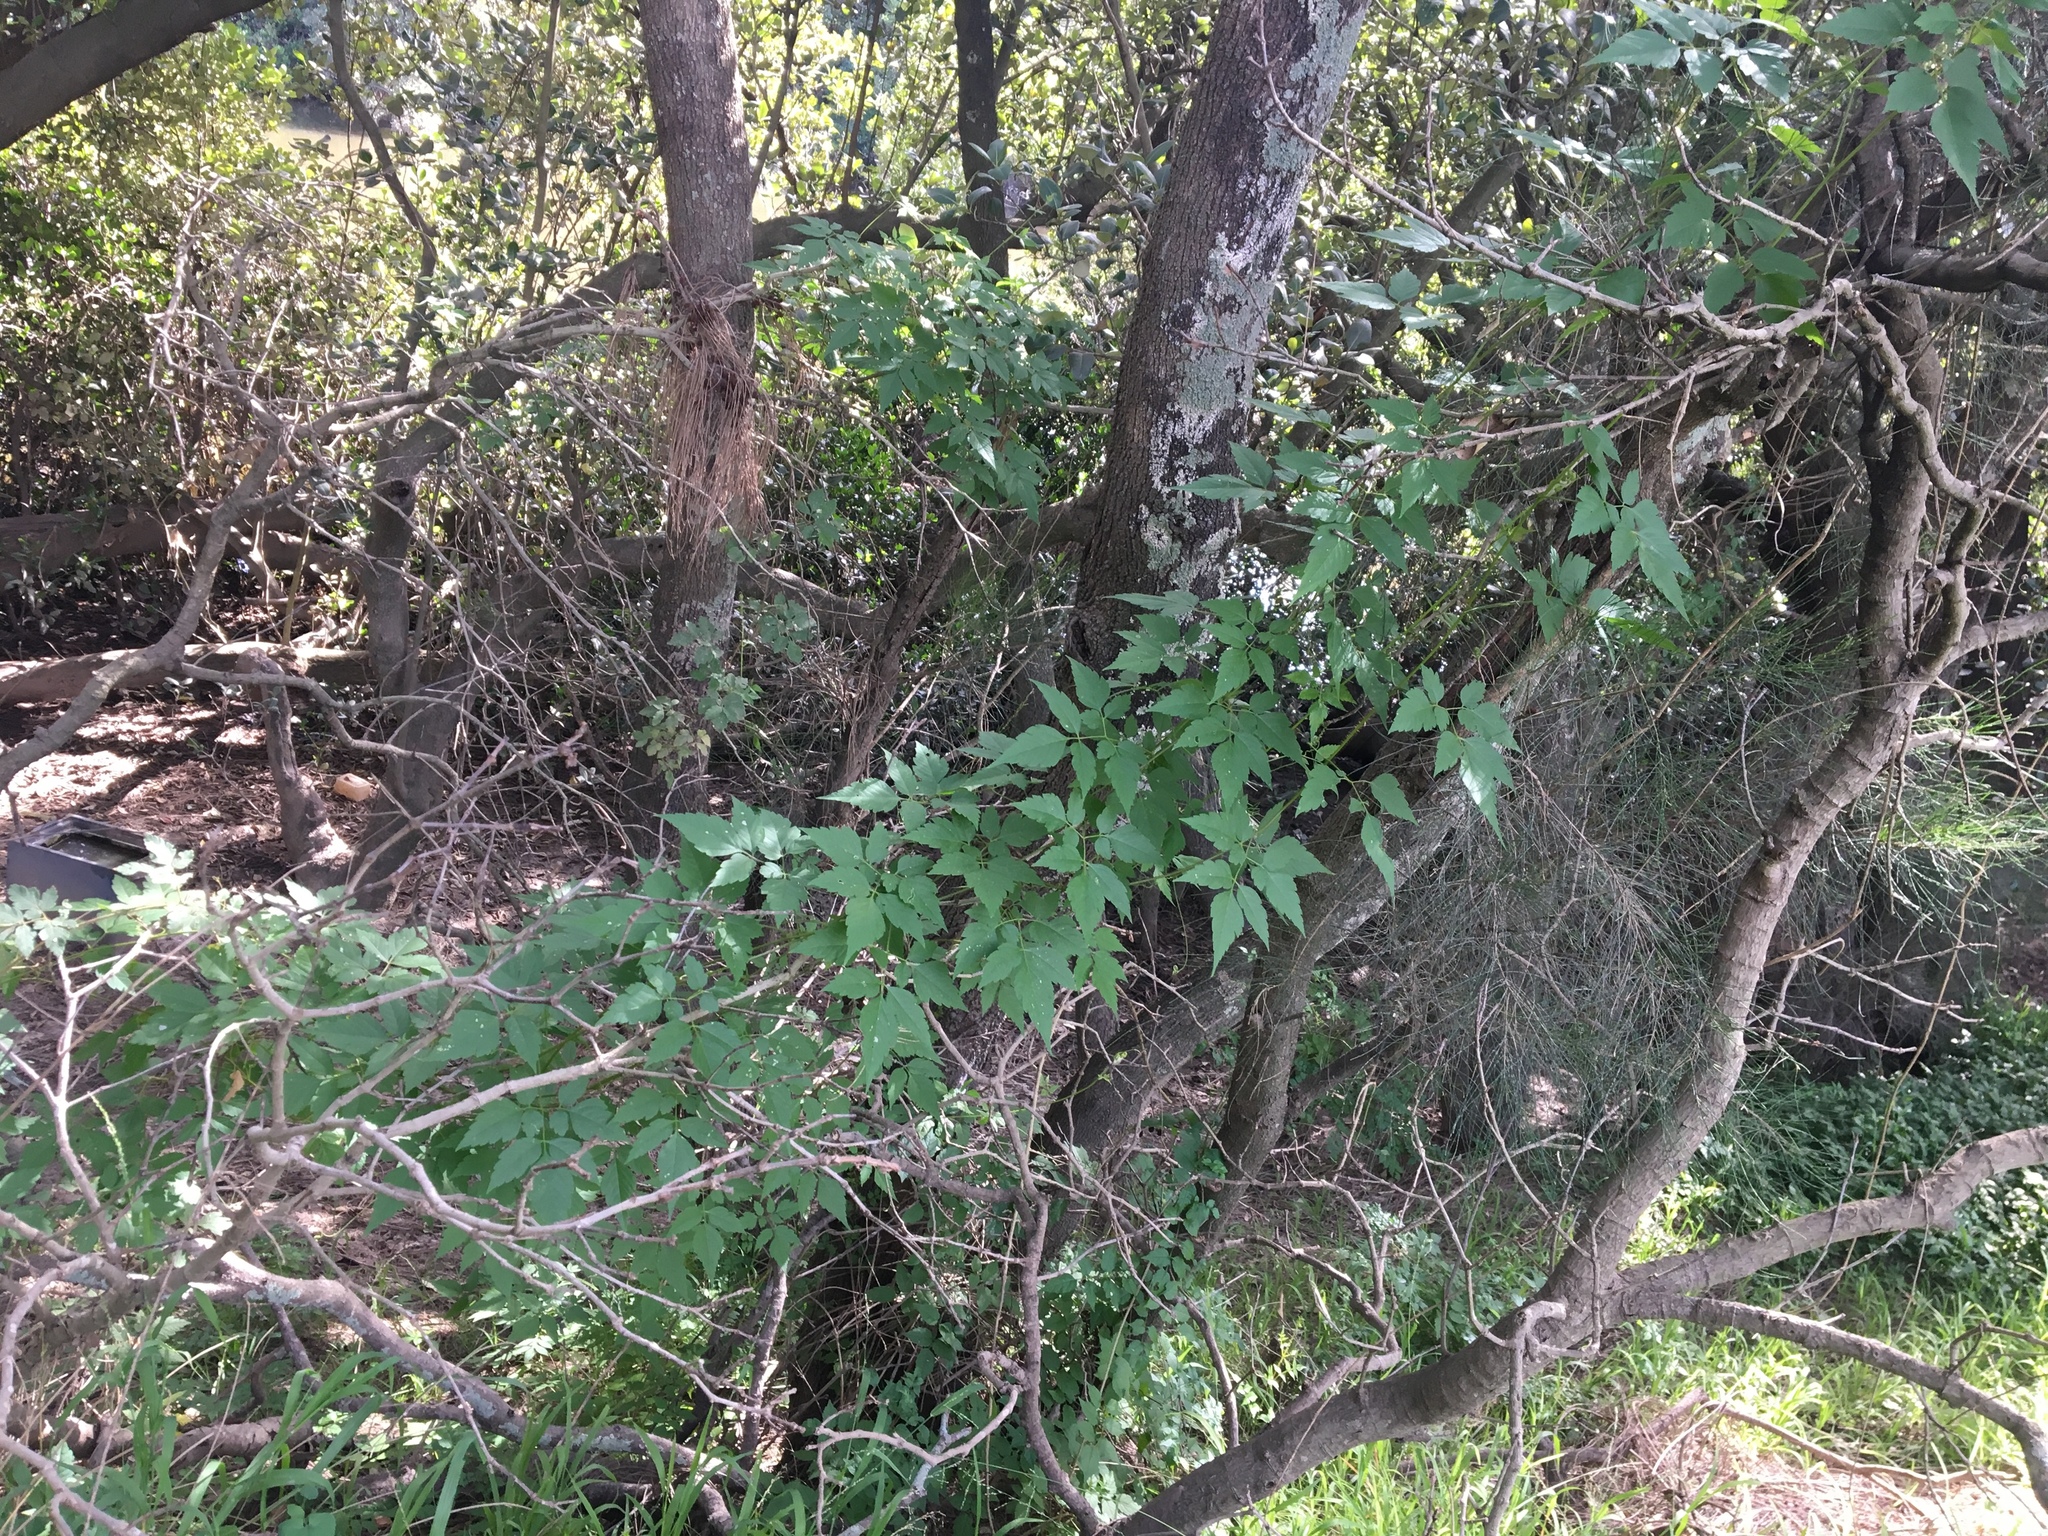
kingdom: Plantae
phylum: Tracheophyta
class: Magnoliopsida
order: Sapindales
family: Sapindaceae
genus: Cardiospermum
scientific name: Cardiospermum grandiflorum
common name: Balloon vine
